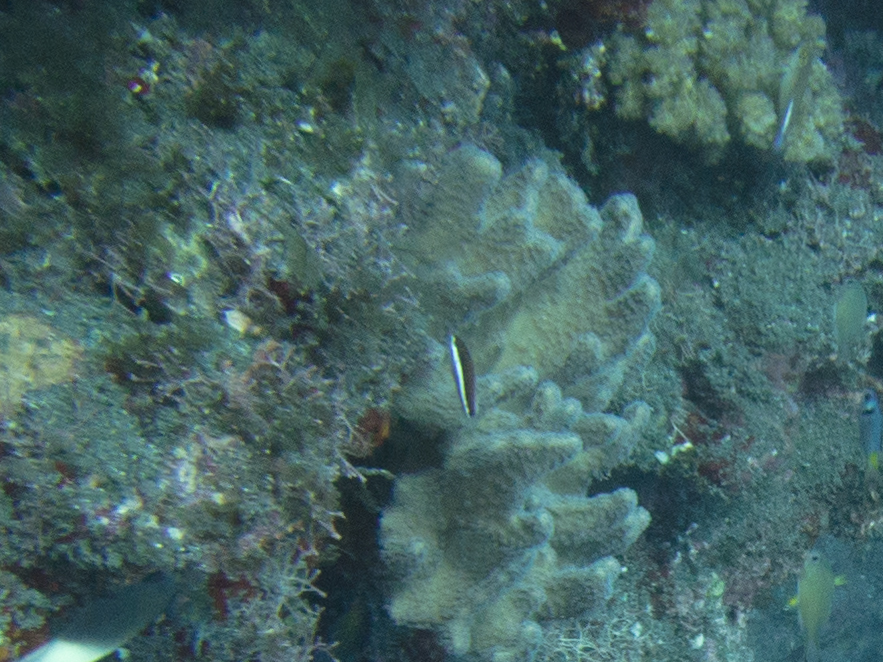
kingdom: Animalia
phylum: Chordata
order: Perciformes
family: Labridae
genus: Gomphosus
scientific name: Gomphosus caeruleus
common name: Bird wrasse
